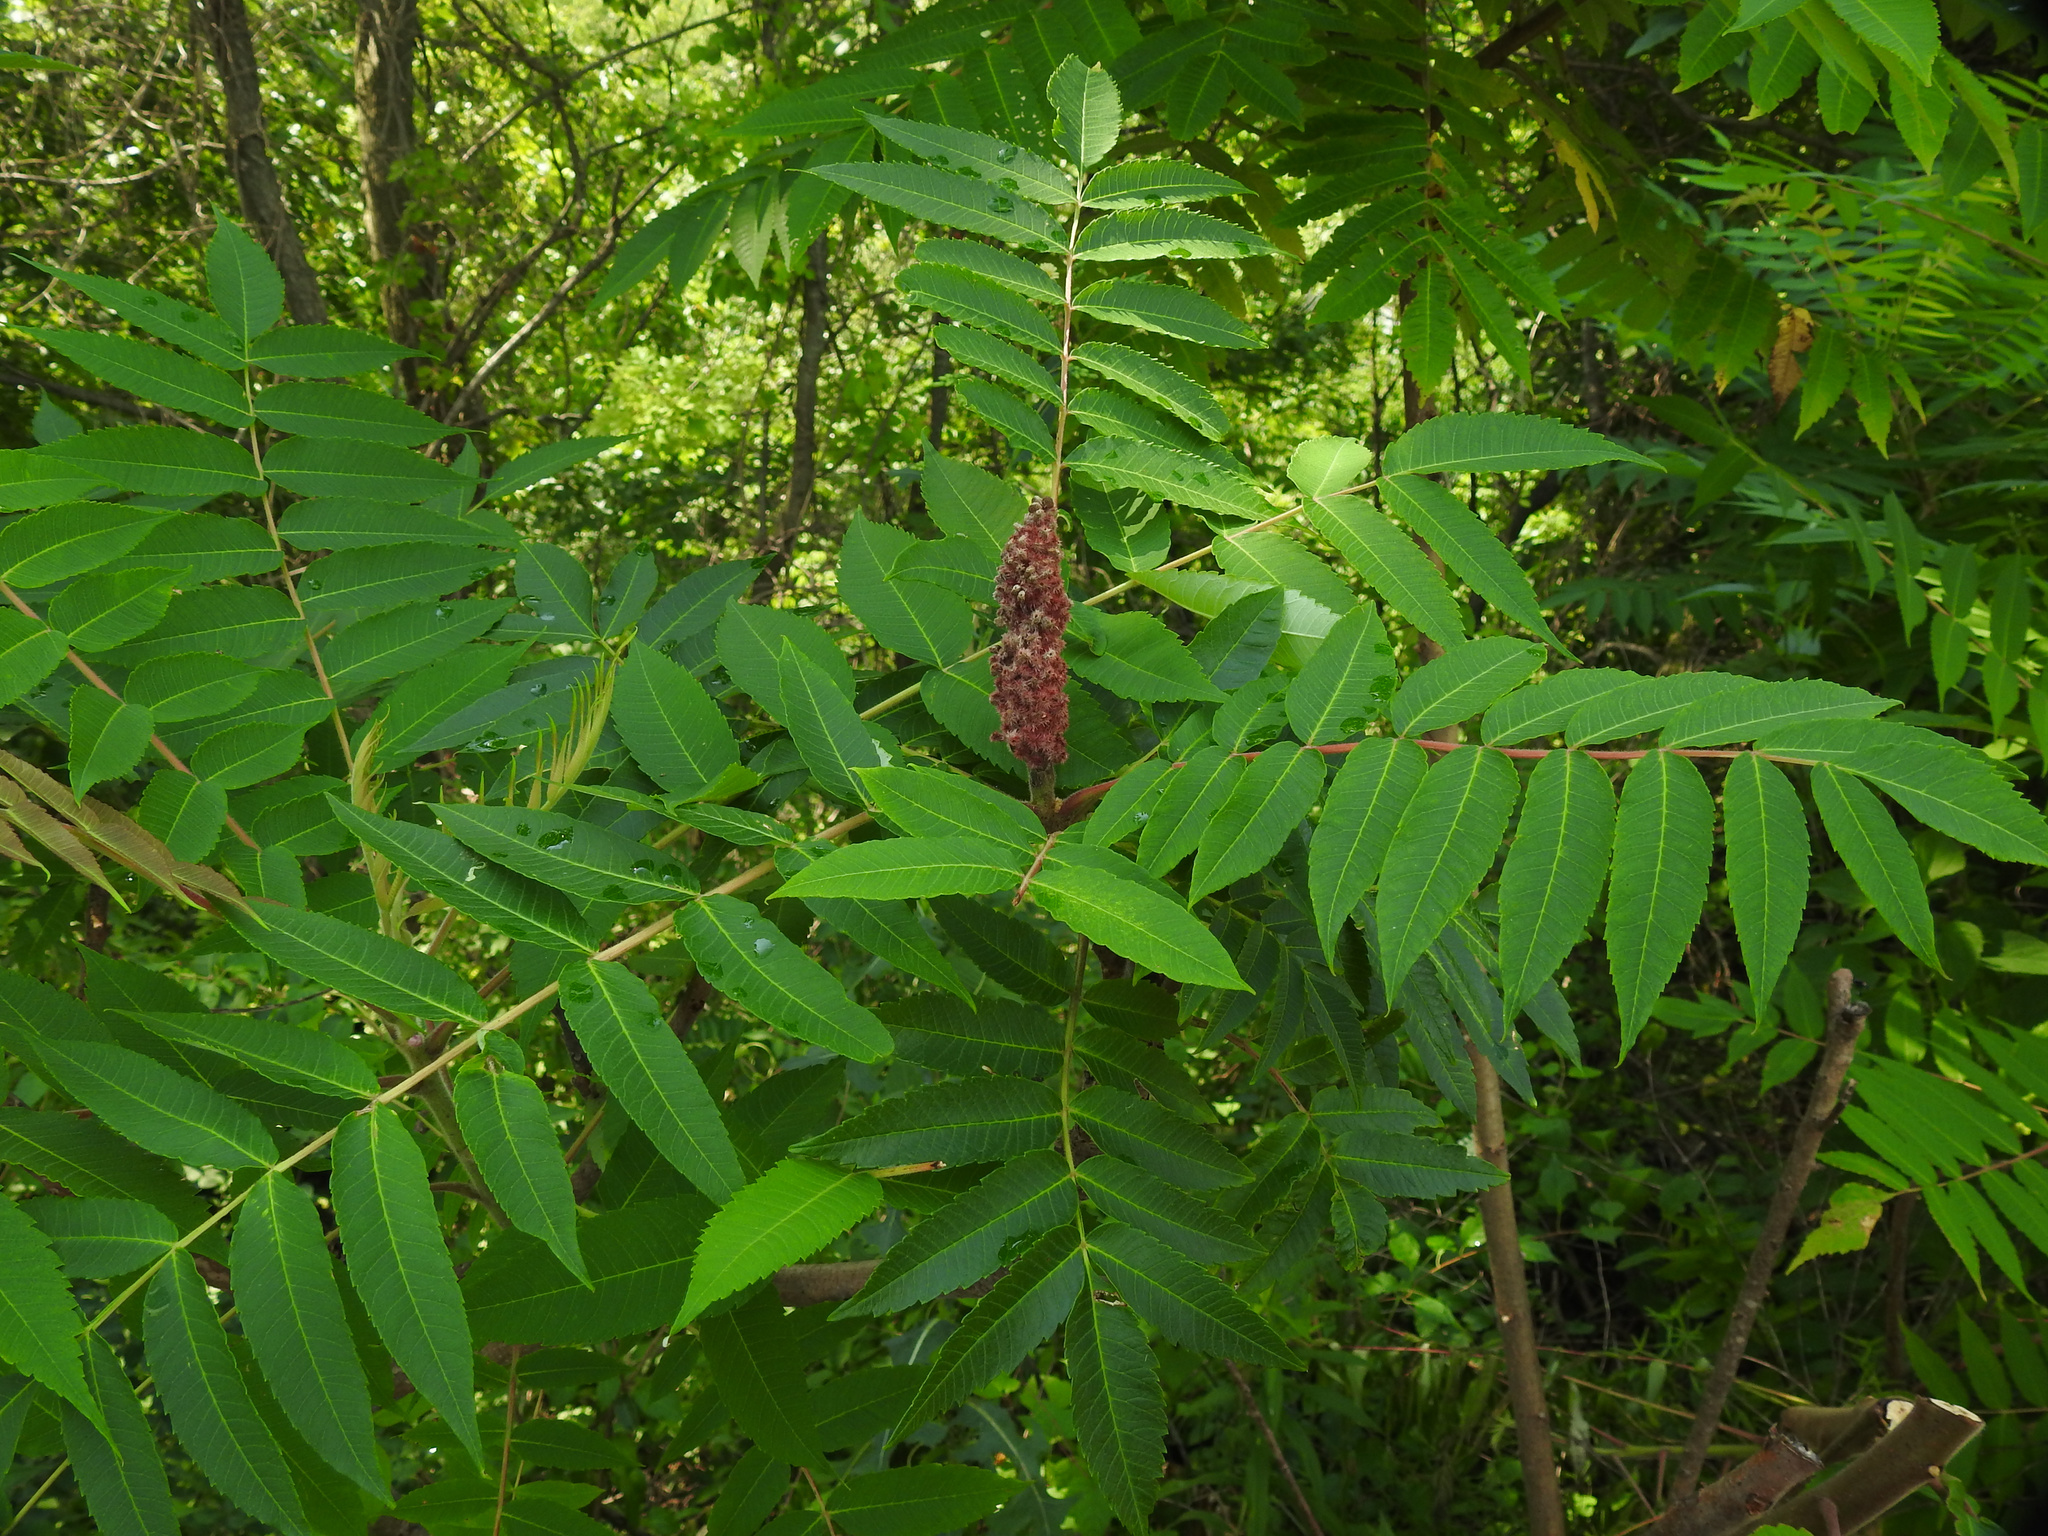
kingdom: Plantae
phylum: Tracheophyta
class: Magnoliopsida
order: Sapindales
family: Anacardiaceae
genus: Rhus
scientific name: Rhus typhina
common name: Staghorn sumac
